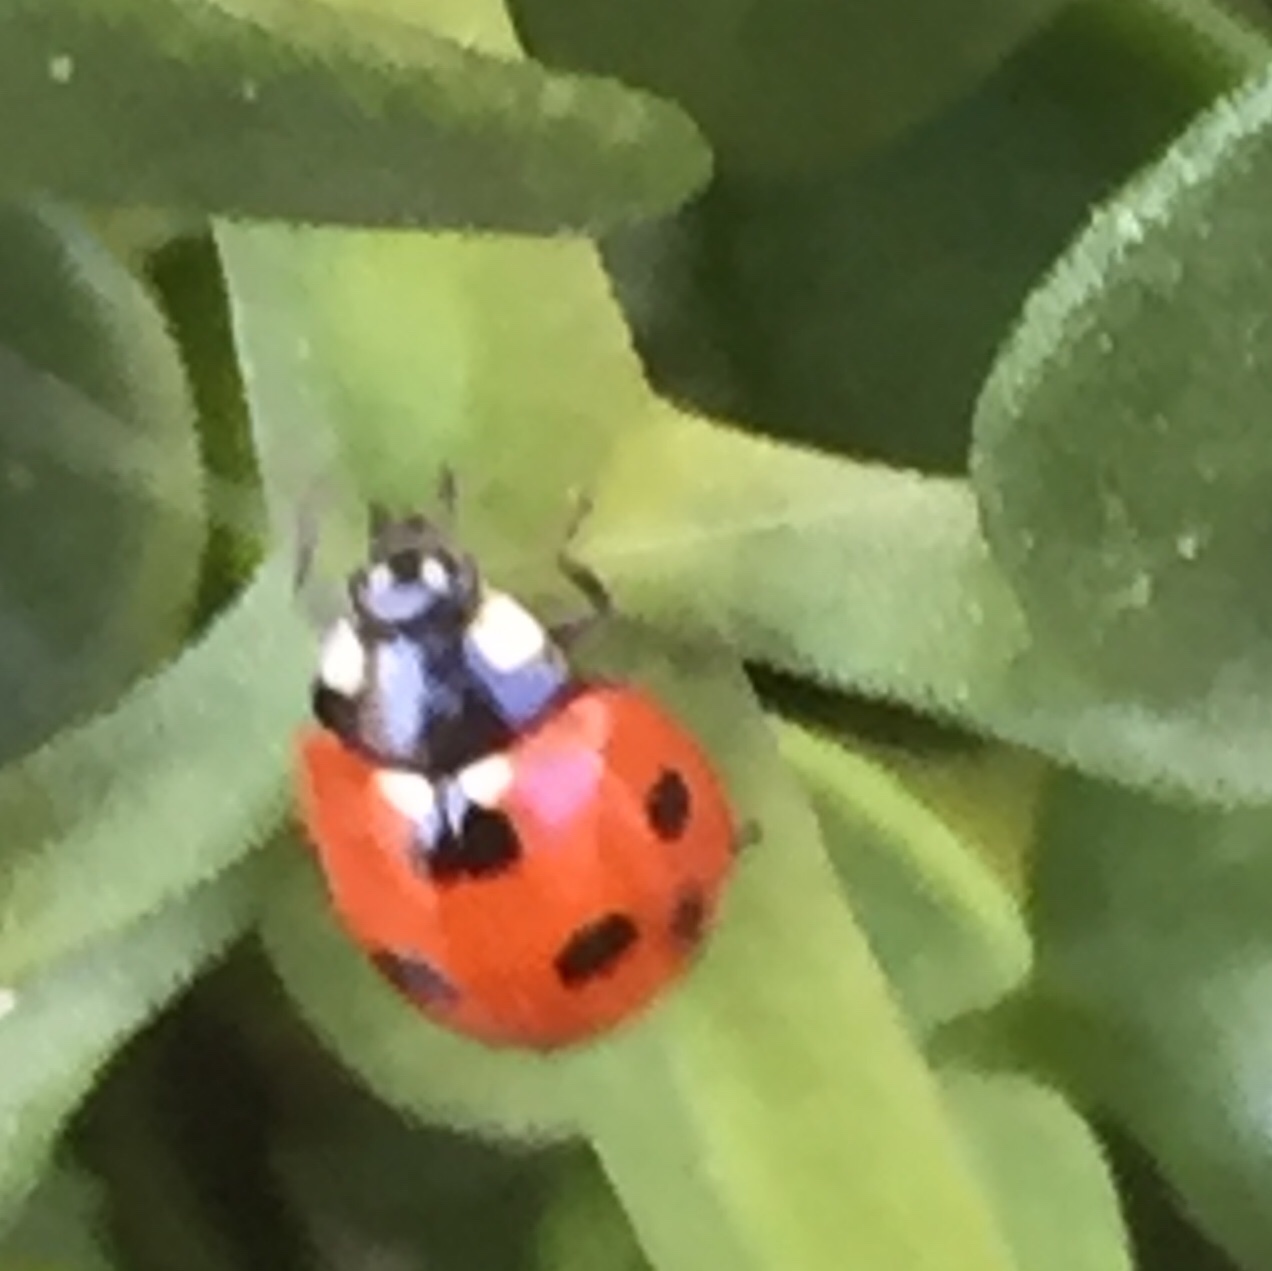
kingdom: Animalia
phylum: Arthropoda
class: Insecta
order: Coleoptera
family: Coccinellidae
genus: Coccinella
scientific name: Coccinella septempunctata
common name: Sevenspotted lady beetle
